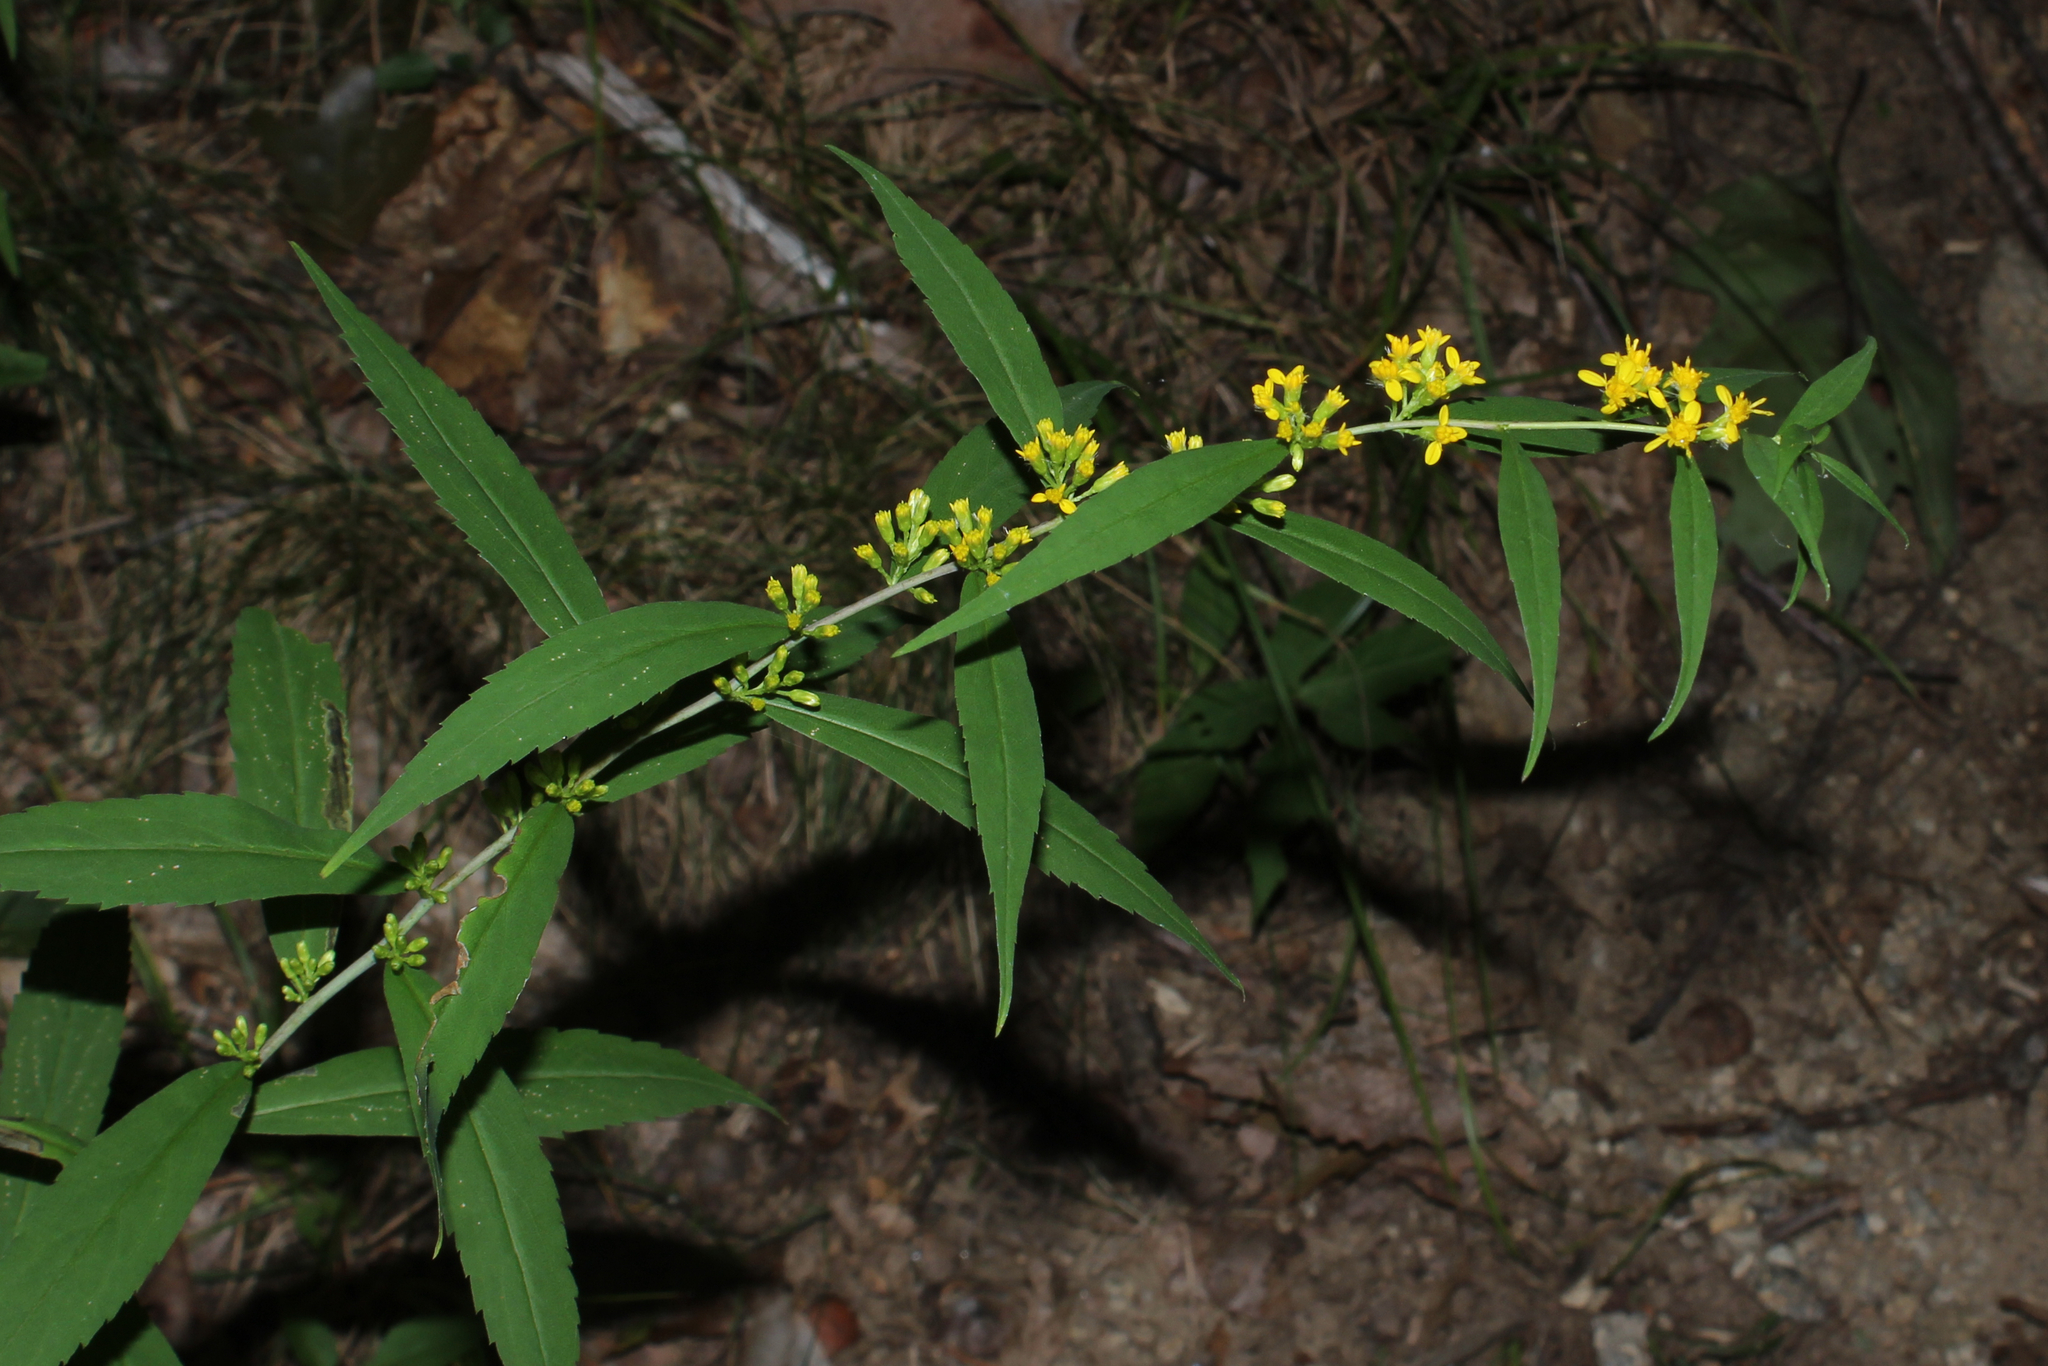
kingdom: Plantae
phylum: Tracheophyta
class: Magnoliopsida
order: Asterales
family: Asteraceae
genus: Solidago
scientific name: Solidago caesia
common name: Woodland goldenrod
